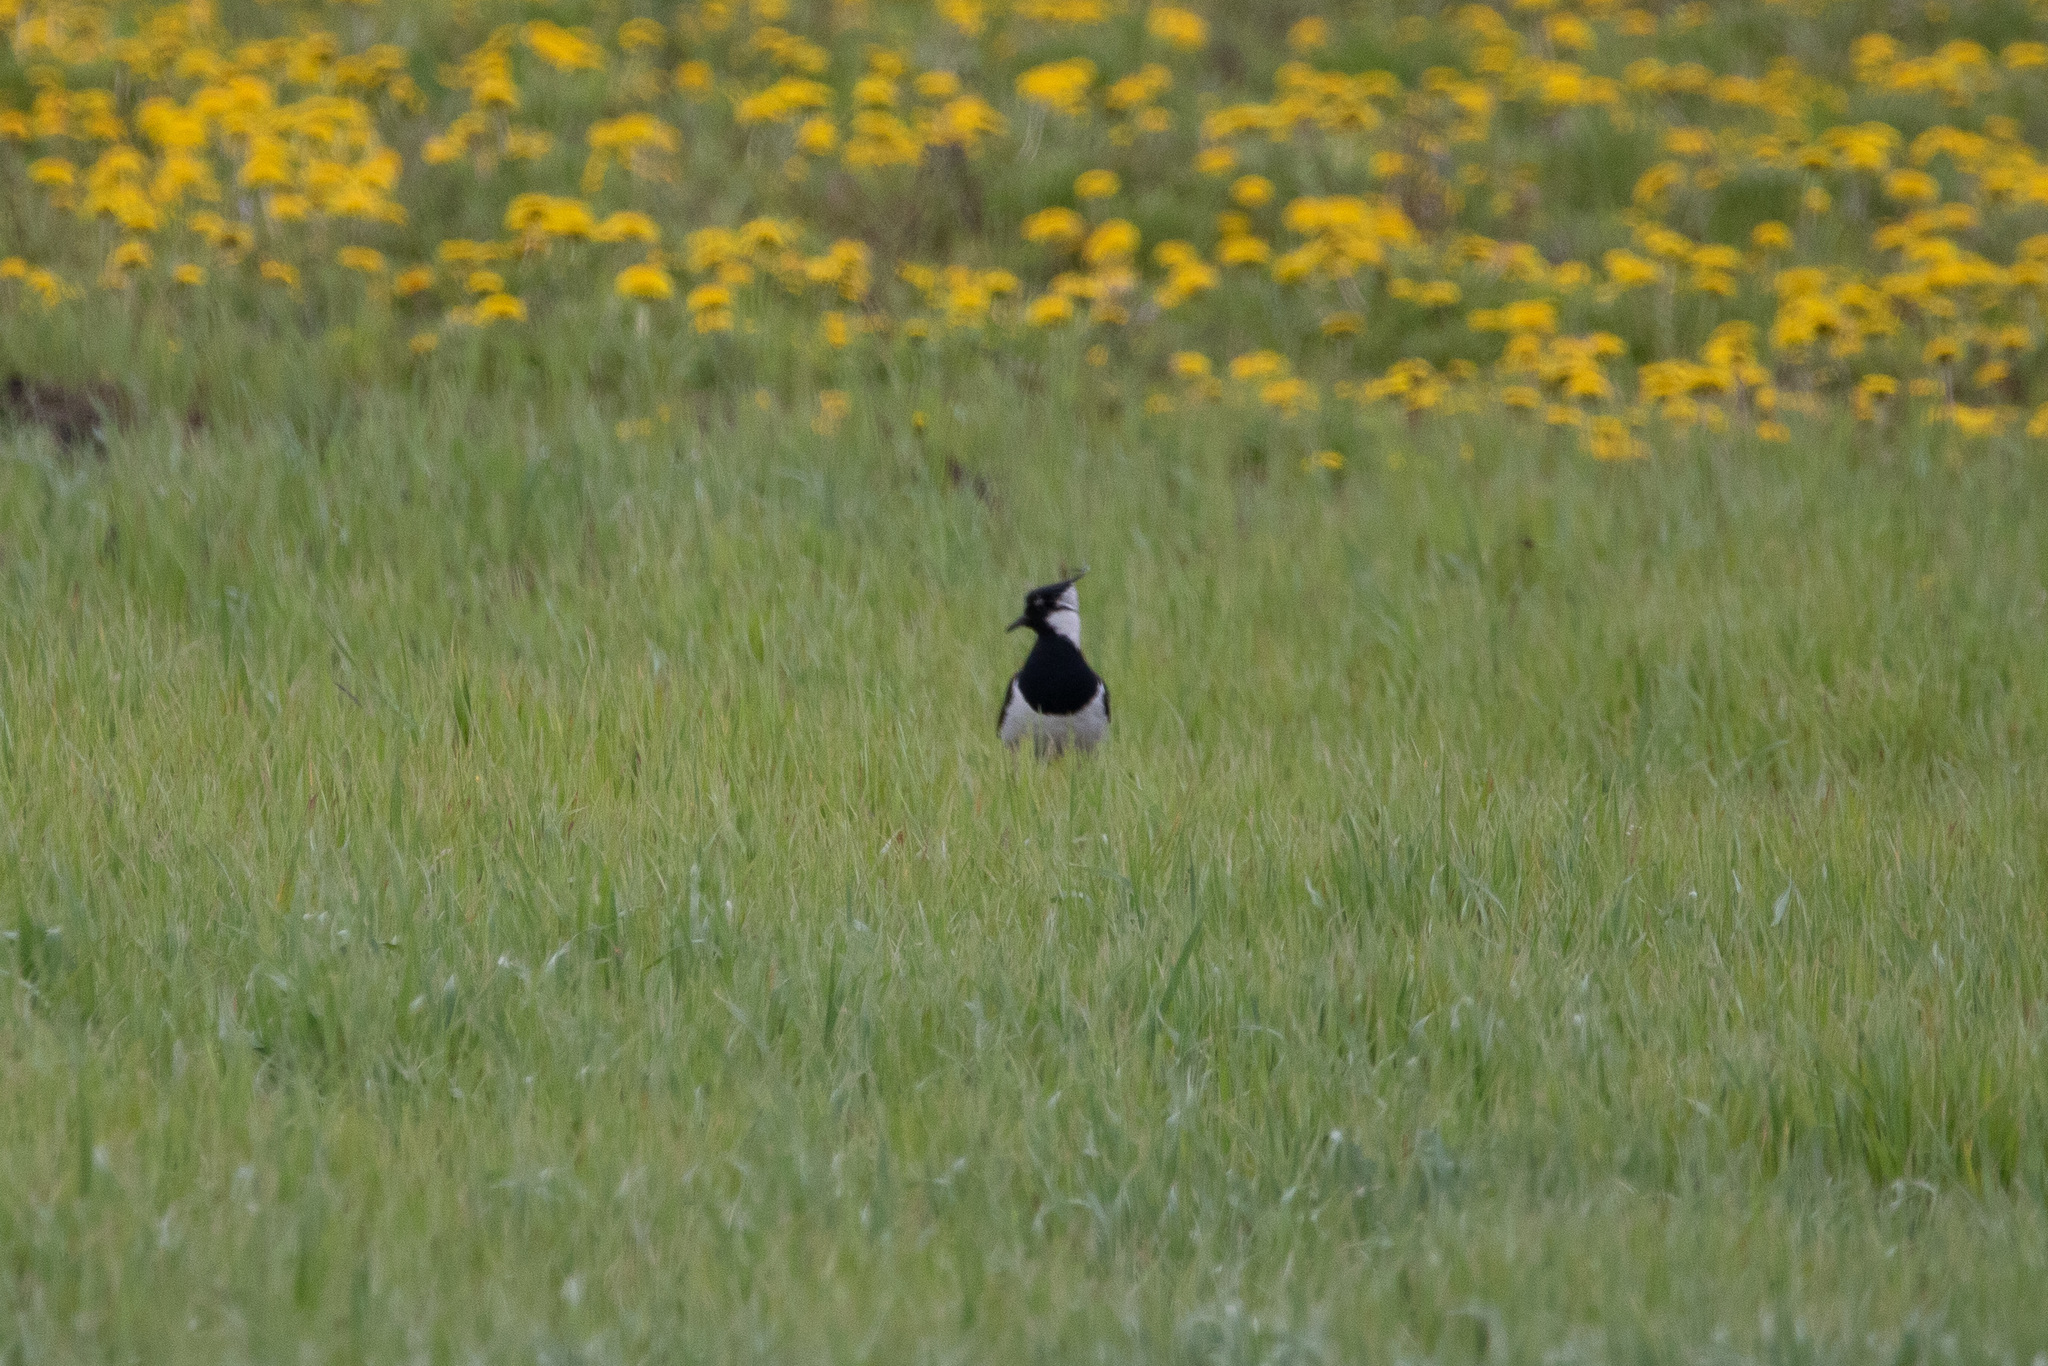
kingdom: Animalia
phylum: Chordata
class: Aves
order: Charadriiformes
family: Charadriidae
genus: Vanellus
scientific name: Vanellus vanellus
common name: Northern lapwing
